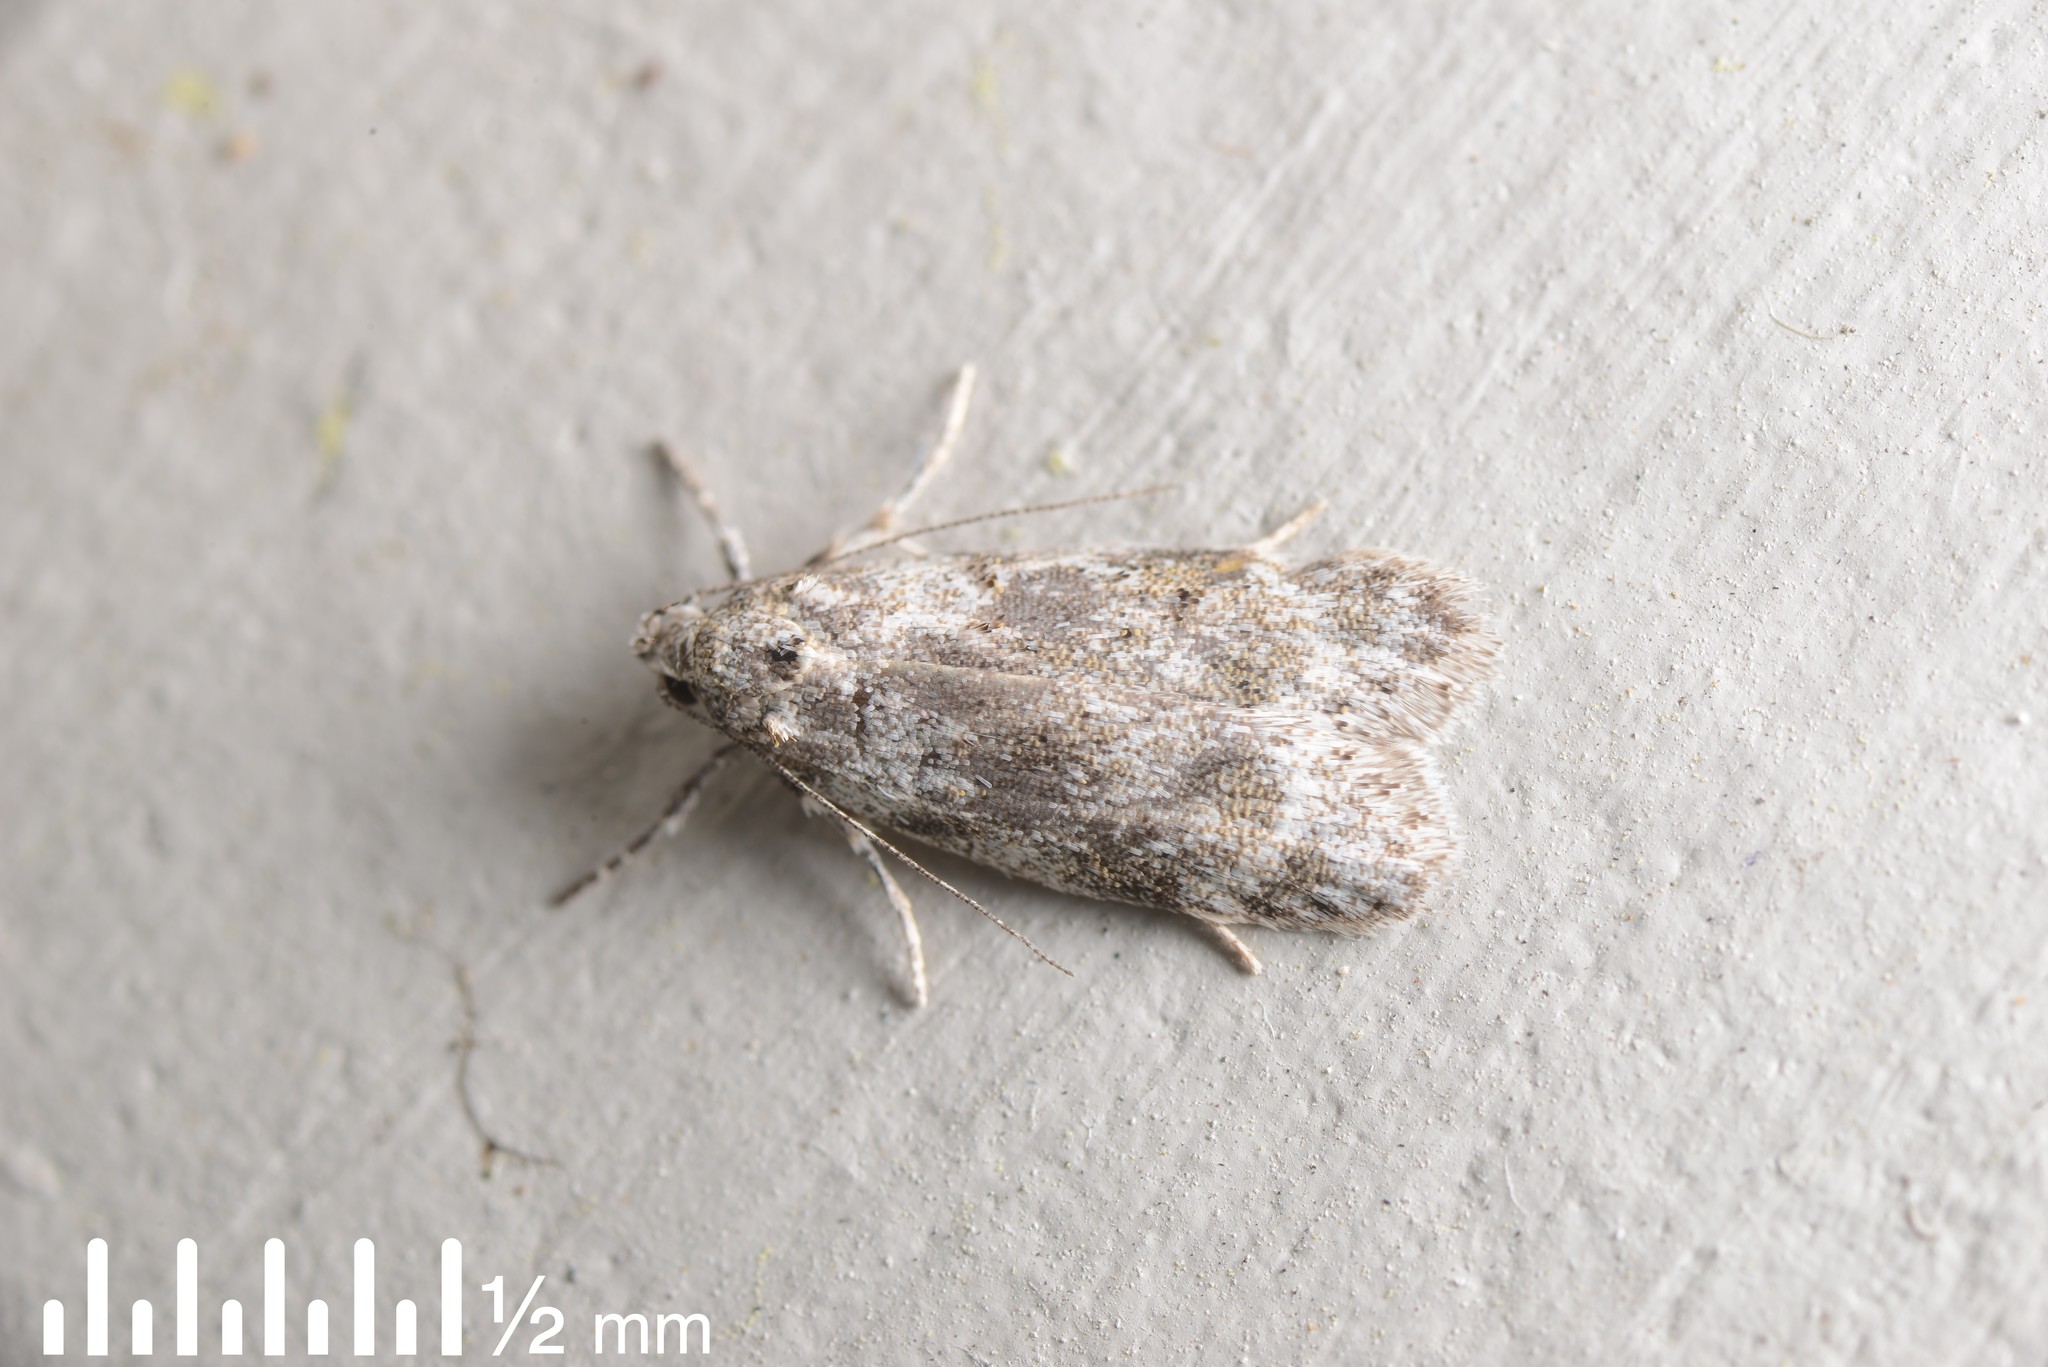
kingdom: Animalia
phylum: Arthropoda
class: Insecta
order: Lepidoptera
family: Oecophoridae
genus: Izatha
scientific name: Izatha convulsella
